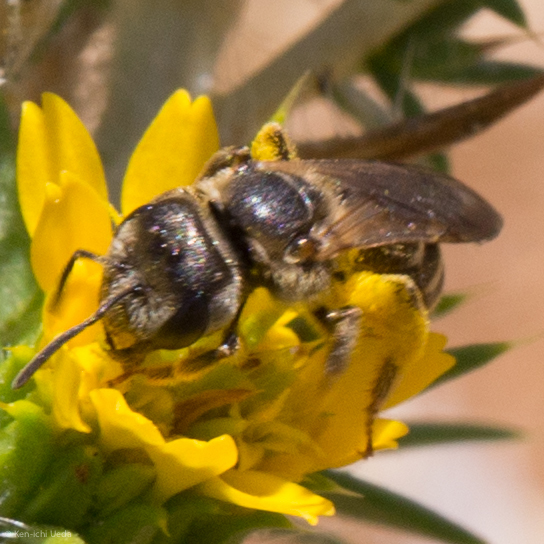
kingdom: Animalia
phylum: Arthropoda
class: Insecta
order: Hymenoptera
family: Halictidae
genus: Halictus
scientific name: Halictus ligatus
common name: Ligated furrow bee
